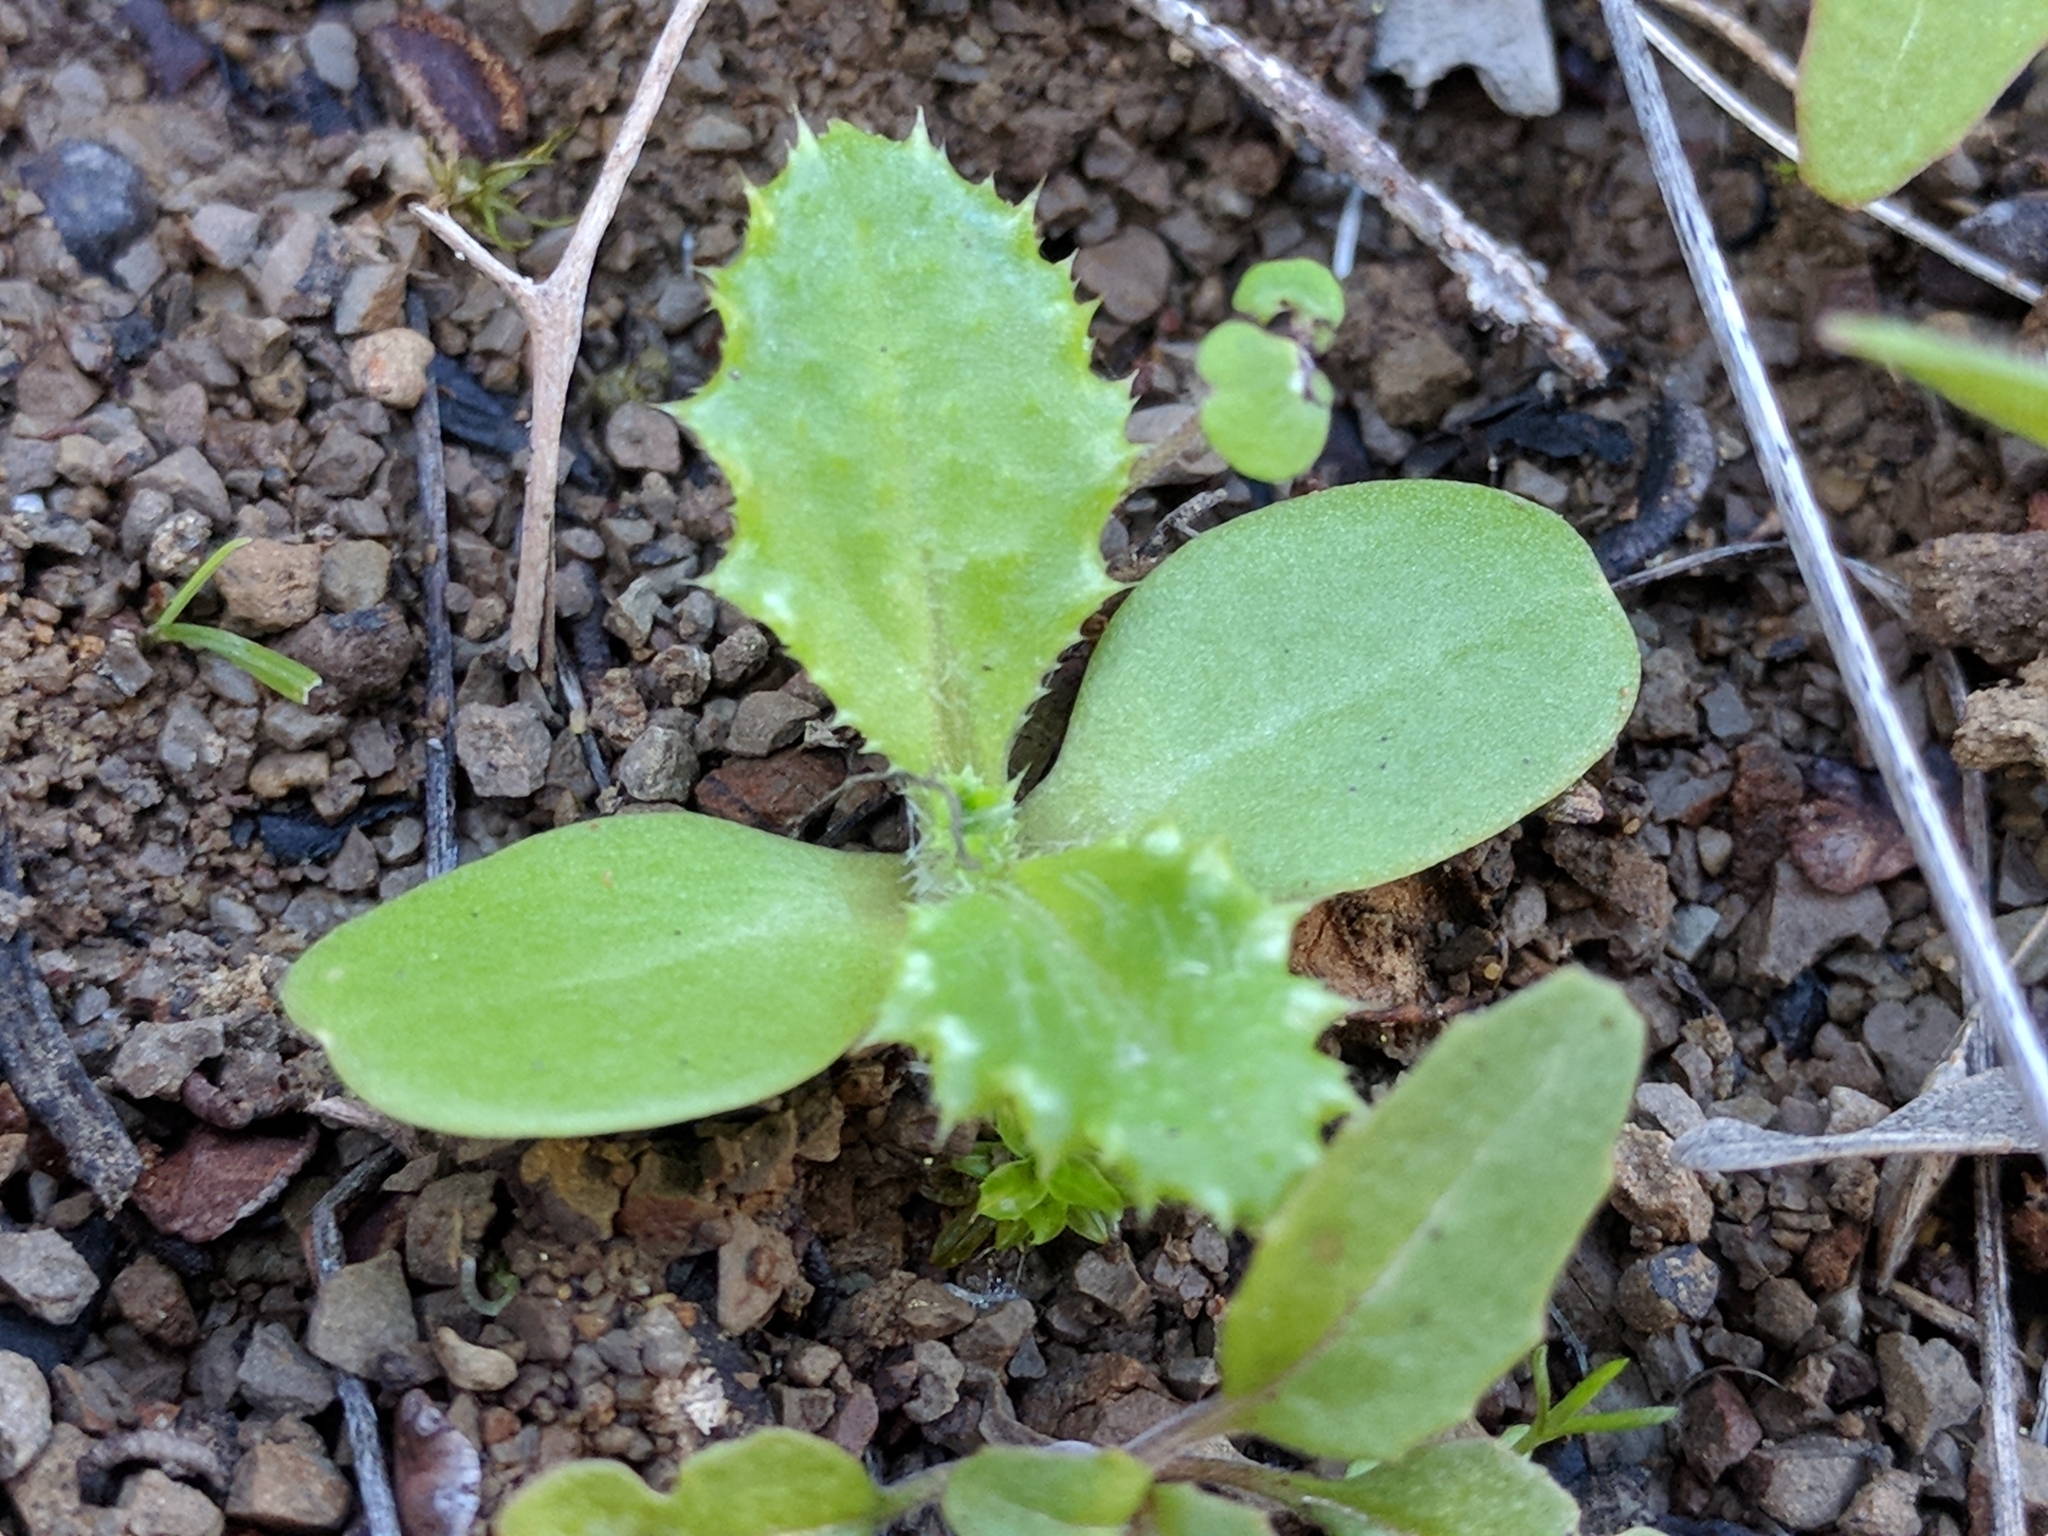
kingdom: Plantae
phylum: Tracheophyta
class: Magnoliopsida
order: Asterales
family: Asteraceae
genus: Carduus
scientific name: Carduus pycnocephalus
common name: Plymouth thistle
